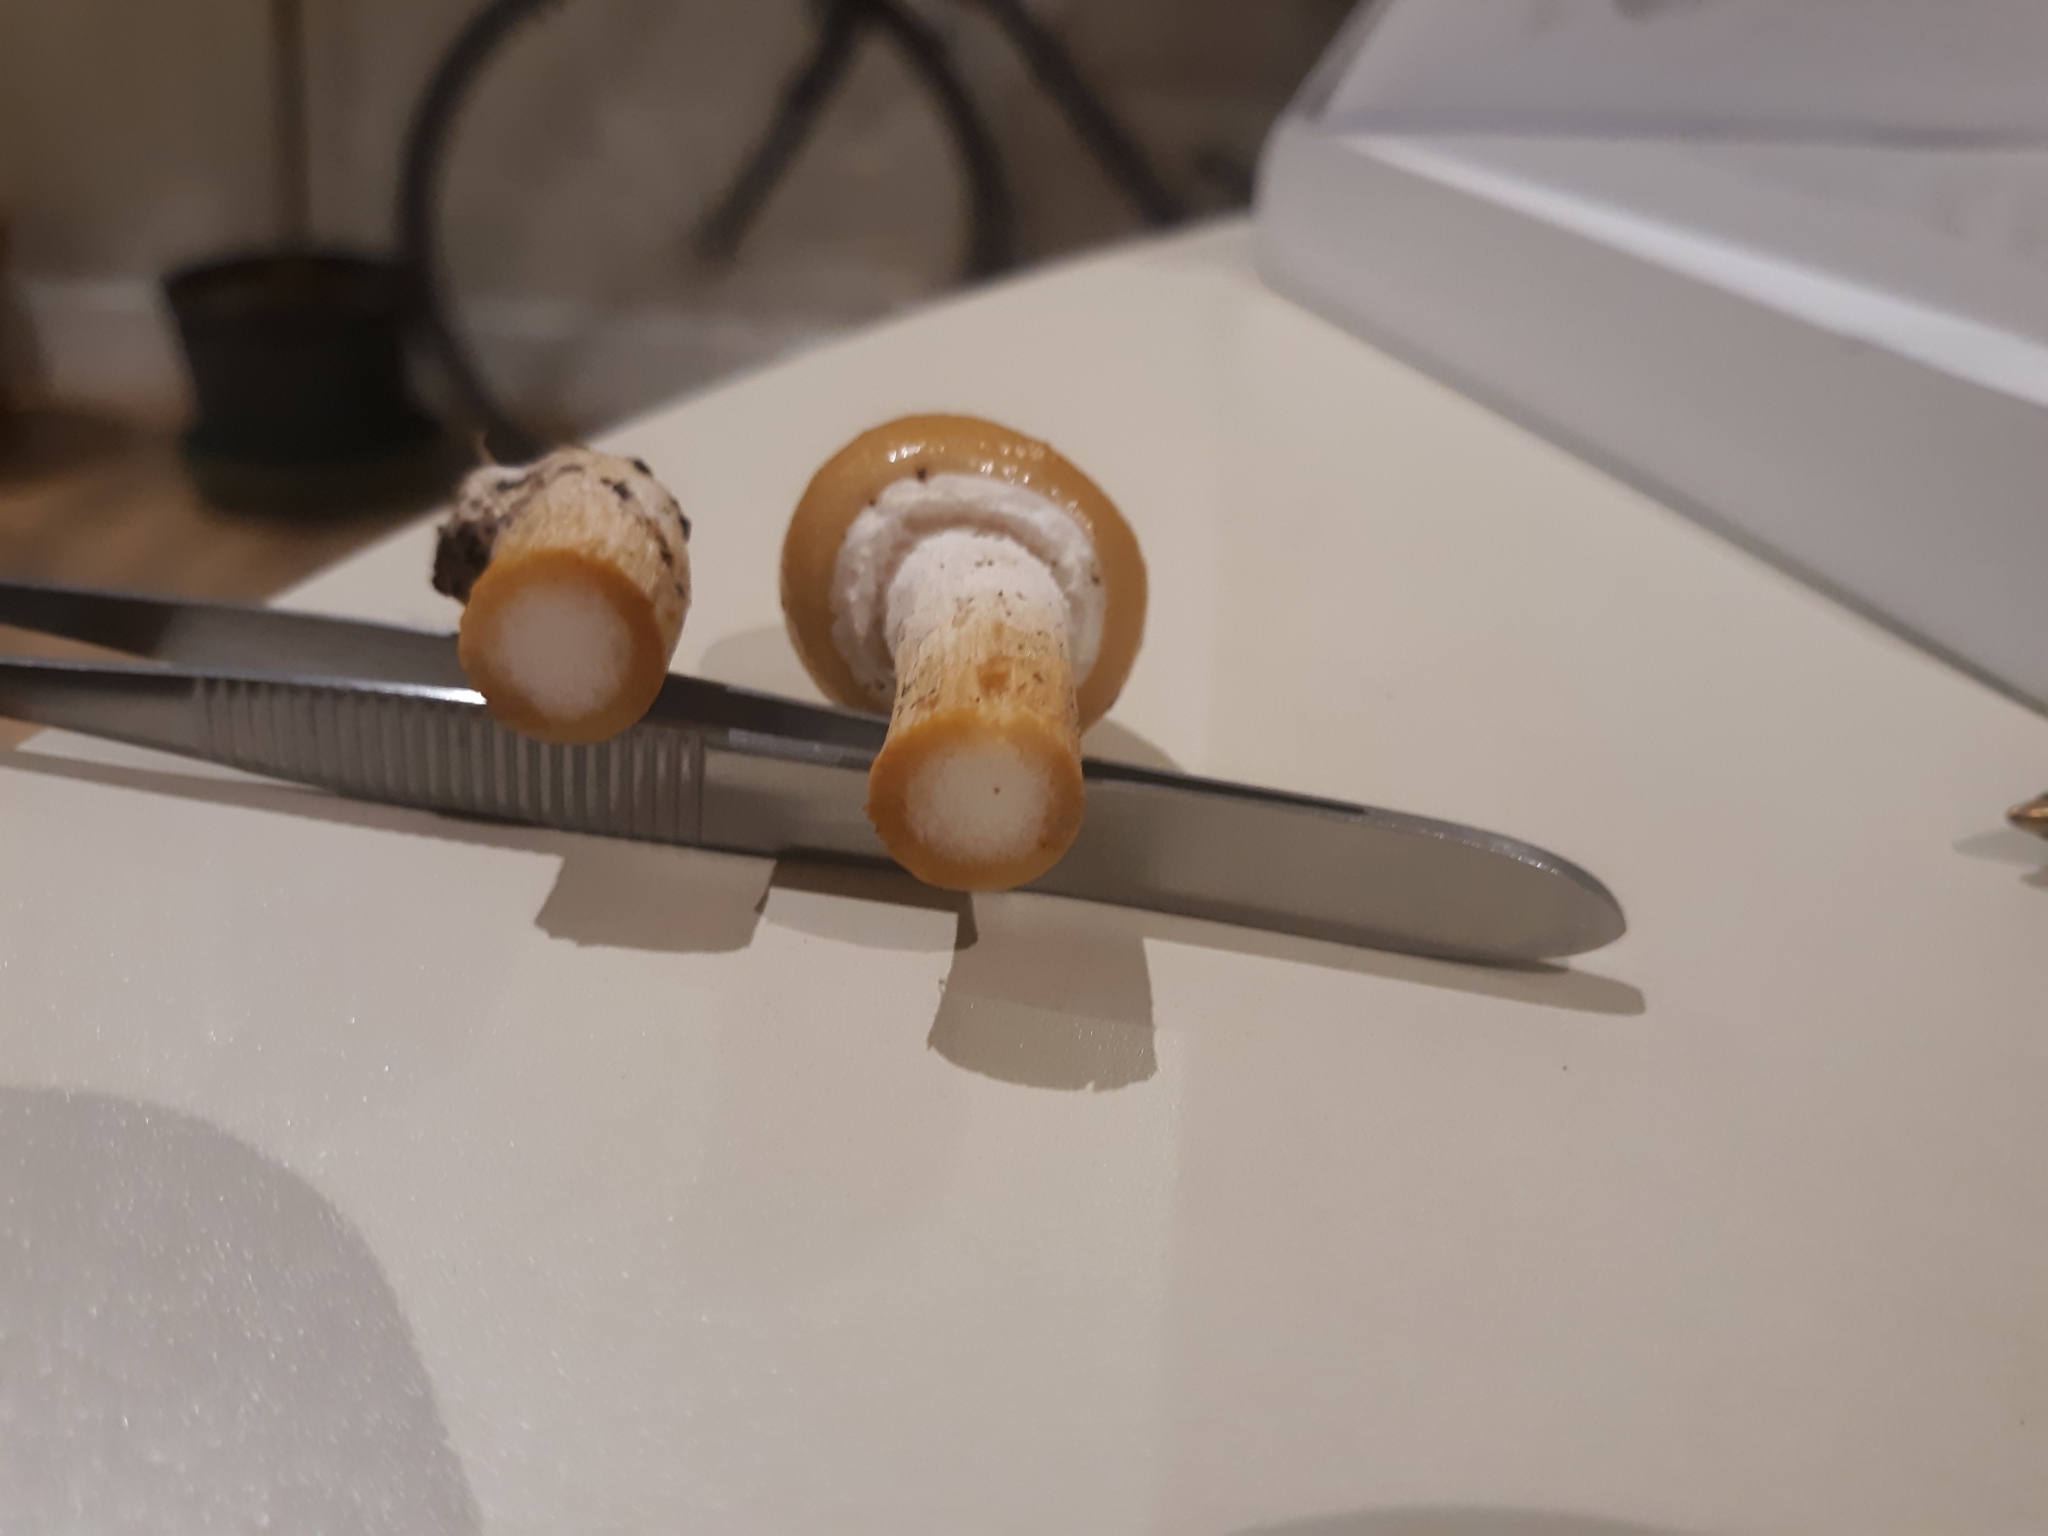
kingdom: Fungi
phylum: Basidiomycota
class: Agaricomycetes
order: Agaricales
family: Strophariaceae
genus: Stropharia
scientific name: Stropharia ambigua
